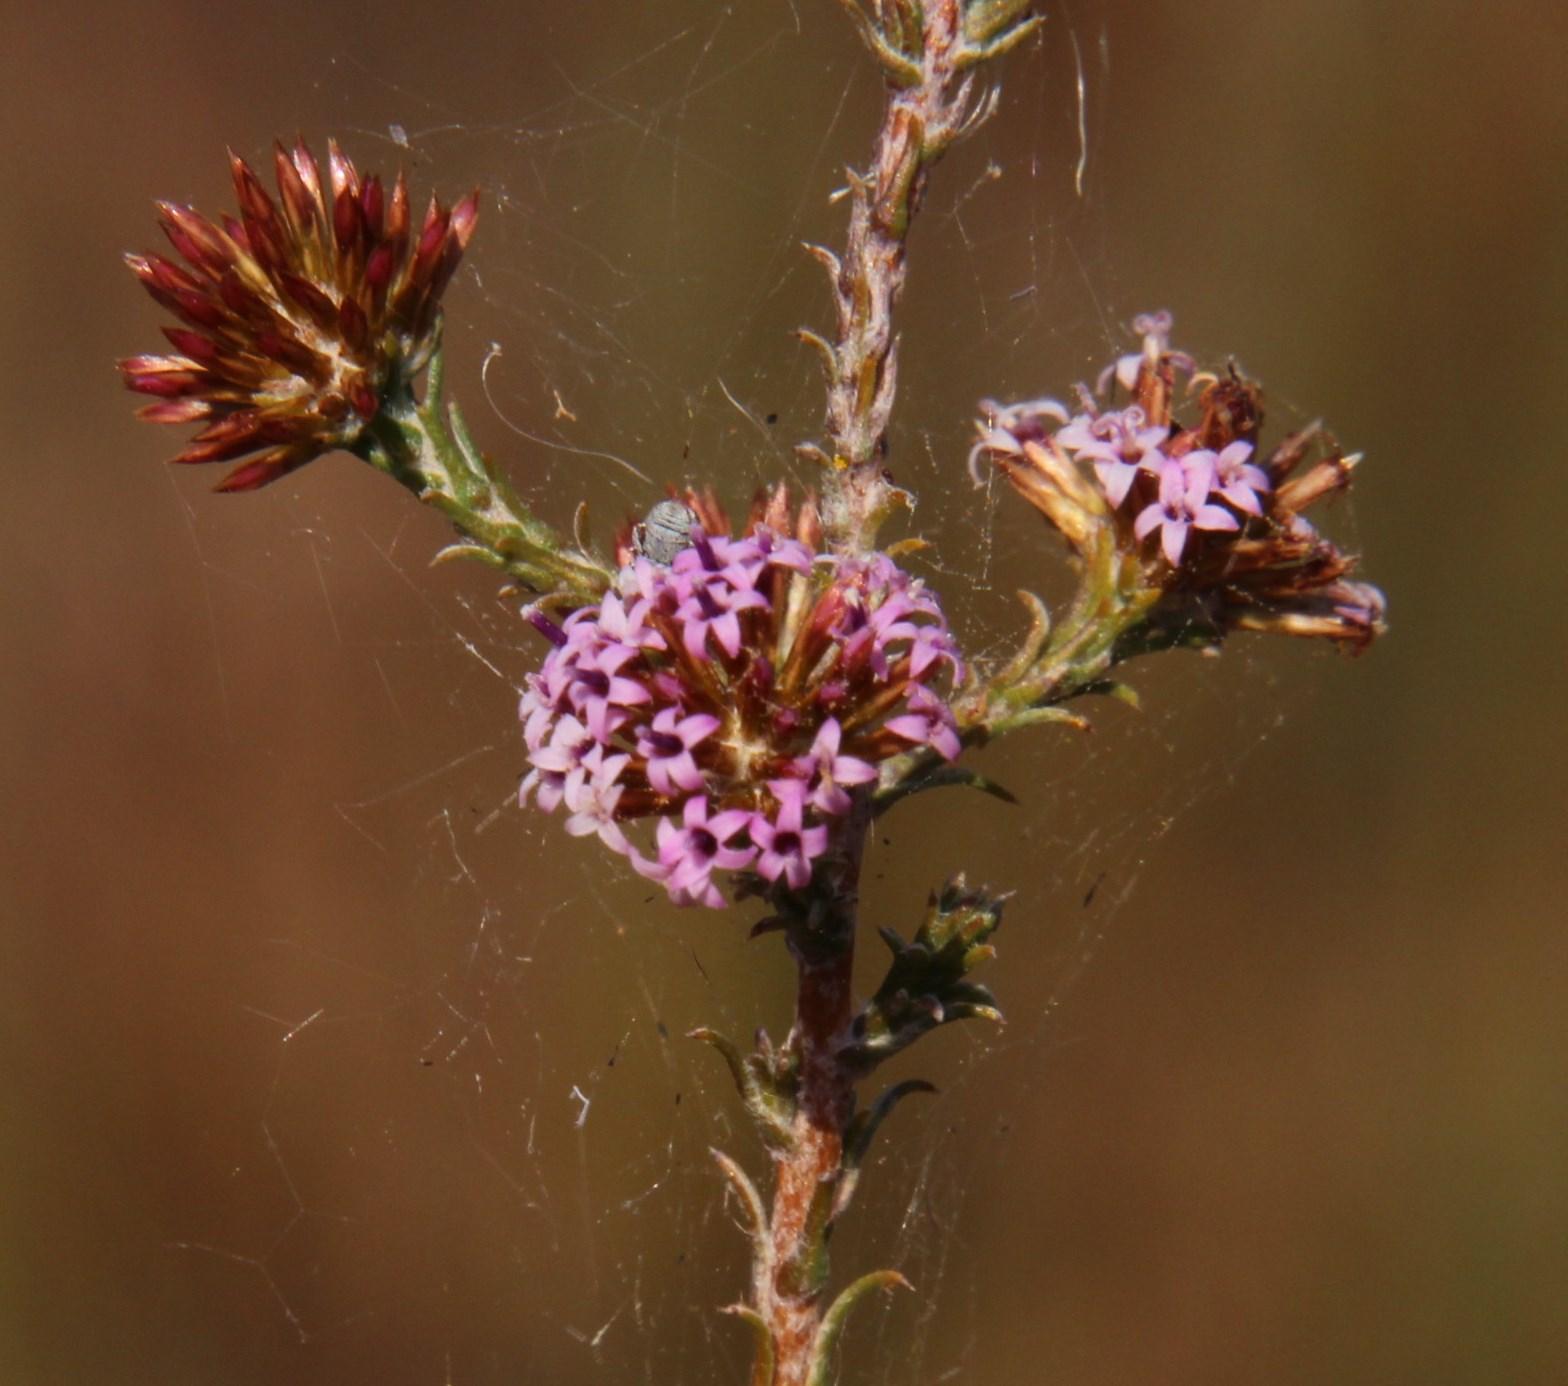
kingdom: Plantae
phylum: Tracheophyta
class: Magnoliopsida
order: Asterales
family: Asteraceae
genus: Stoebe
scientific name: Stoebe fusca
